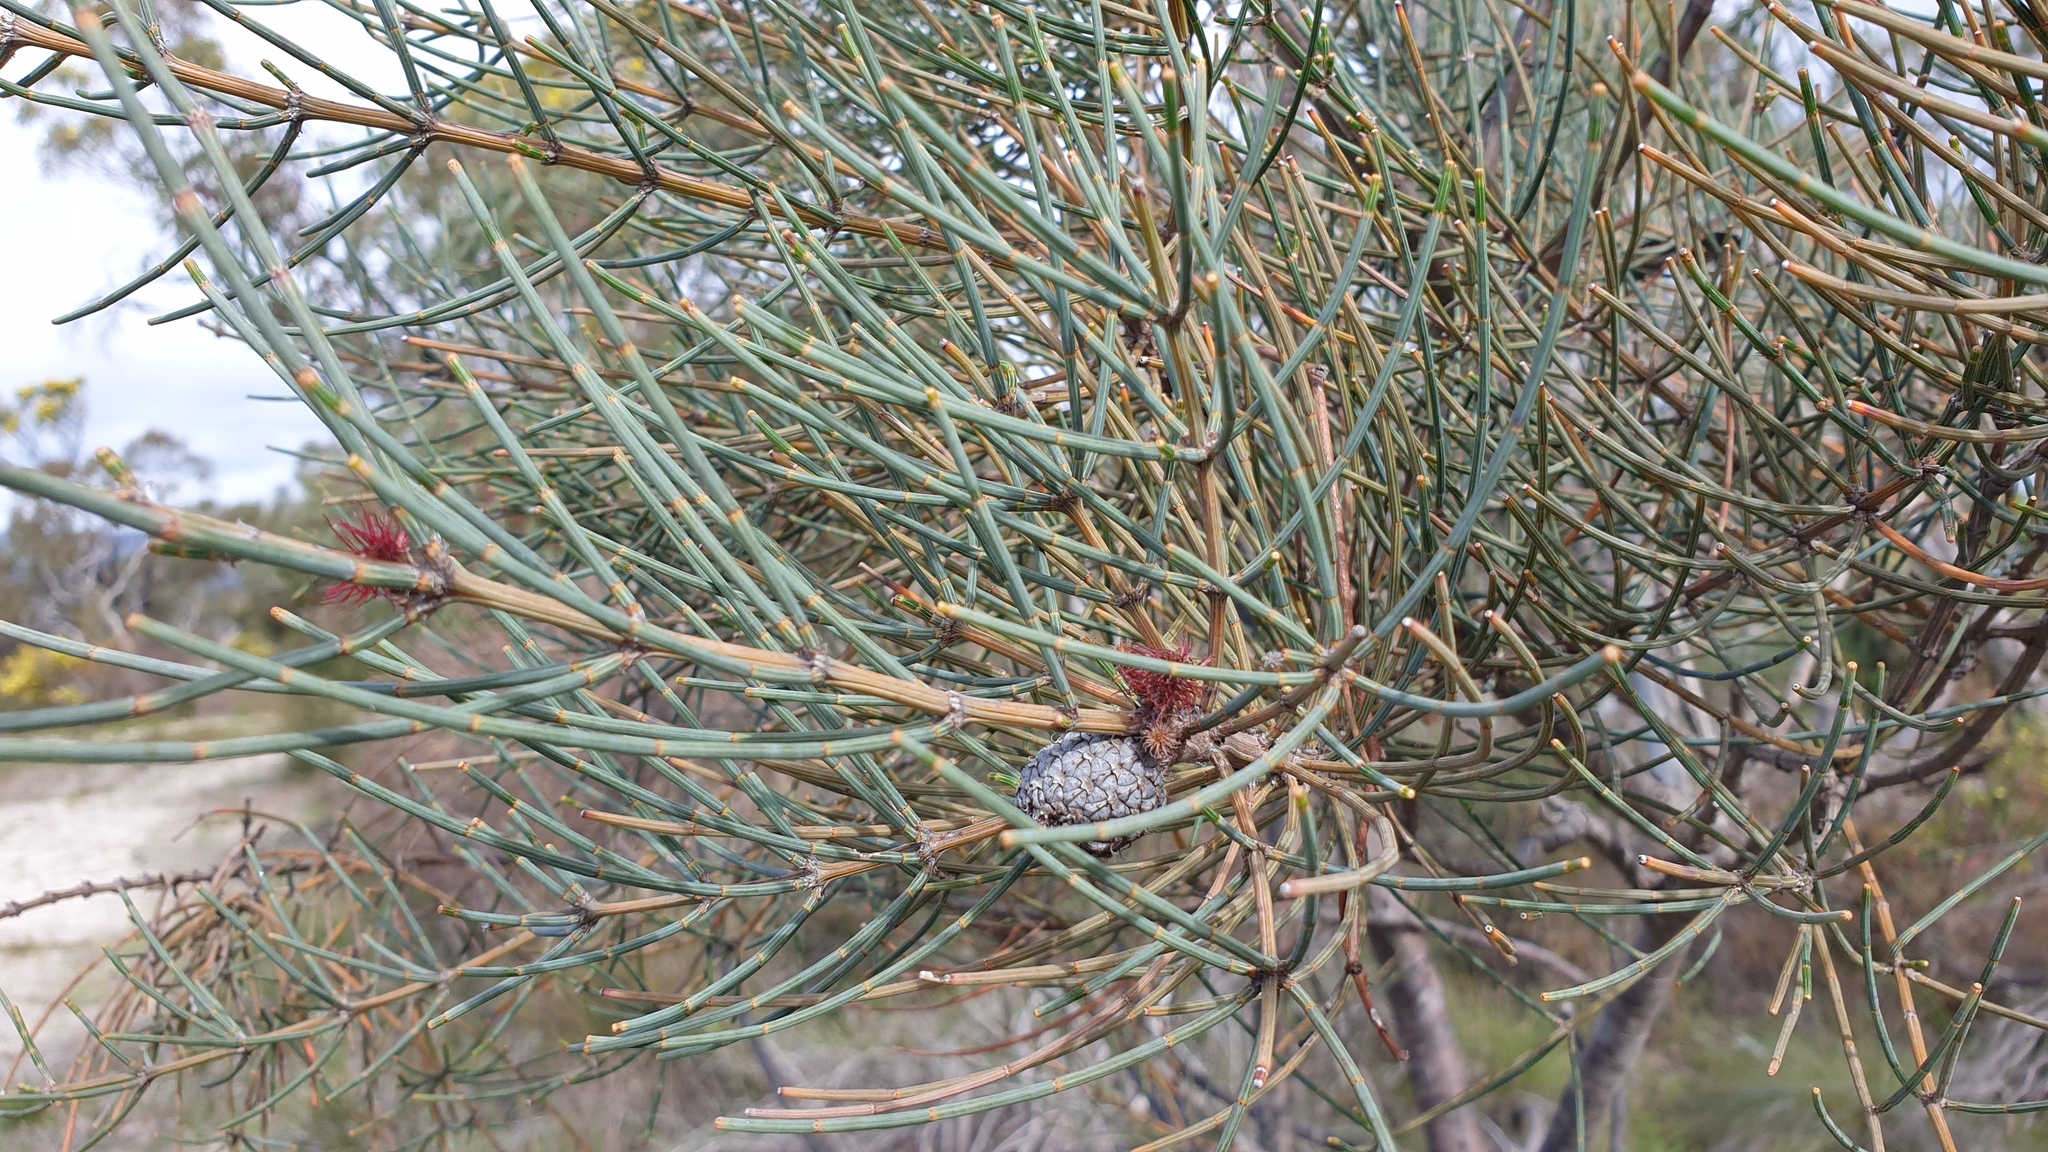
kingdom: Plantae
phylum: Tracheophyta
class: Magnoliopsida
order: Fagales
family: Casuarinaceae
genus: Allocasuarina
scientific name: Allocasuarina striata
